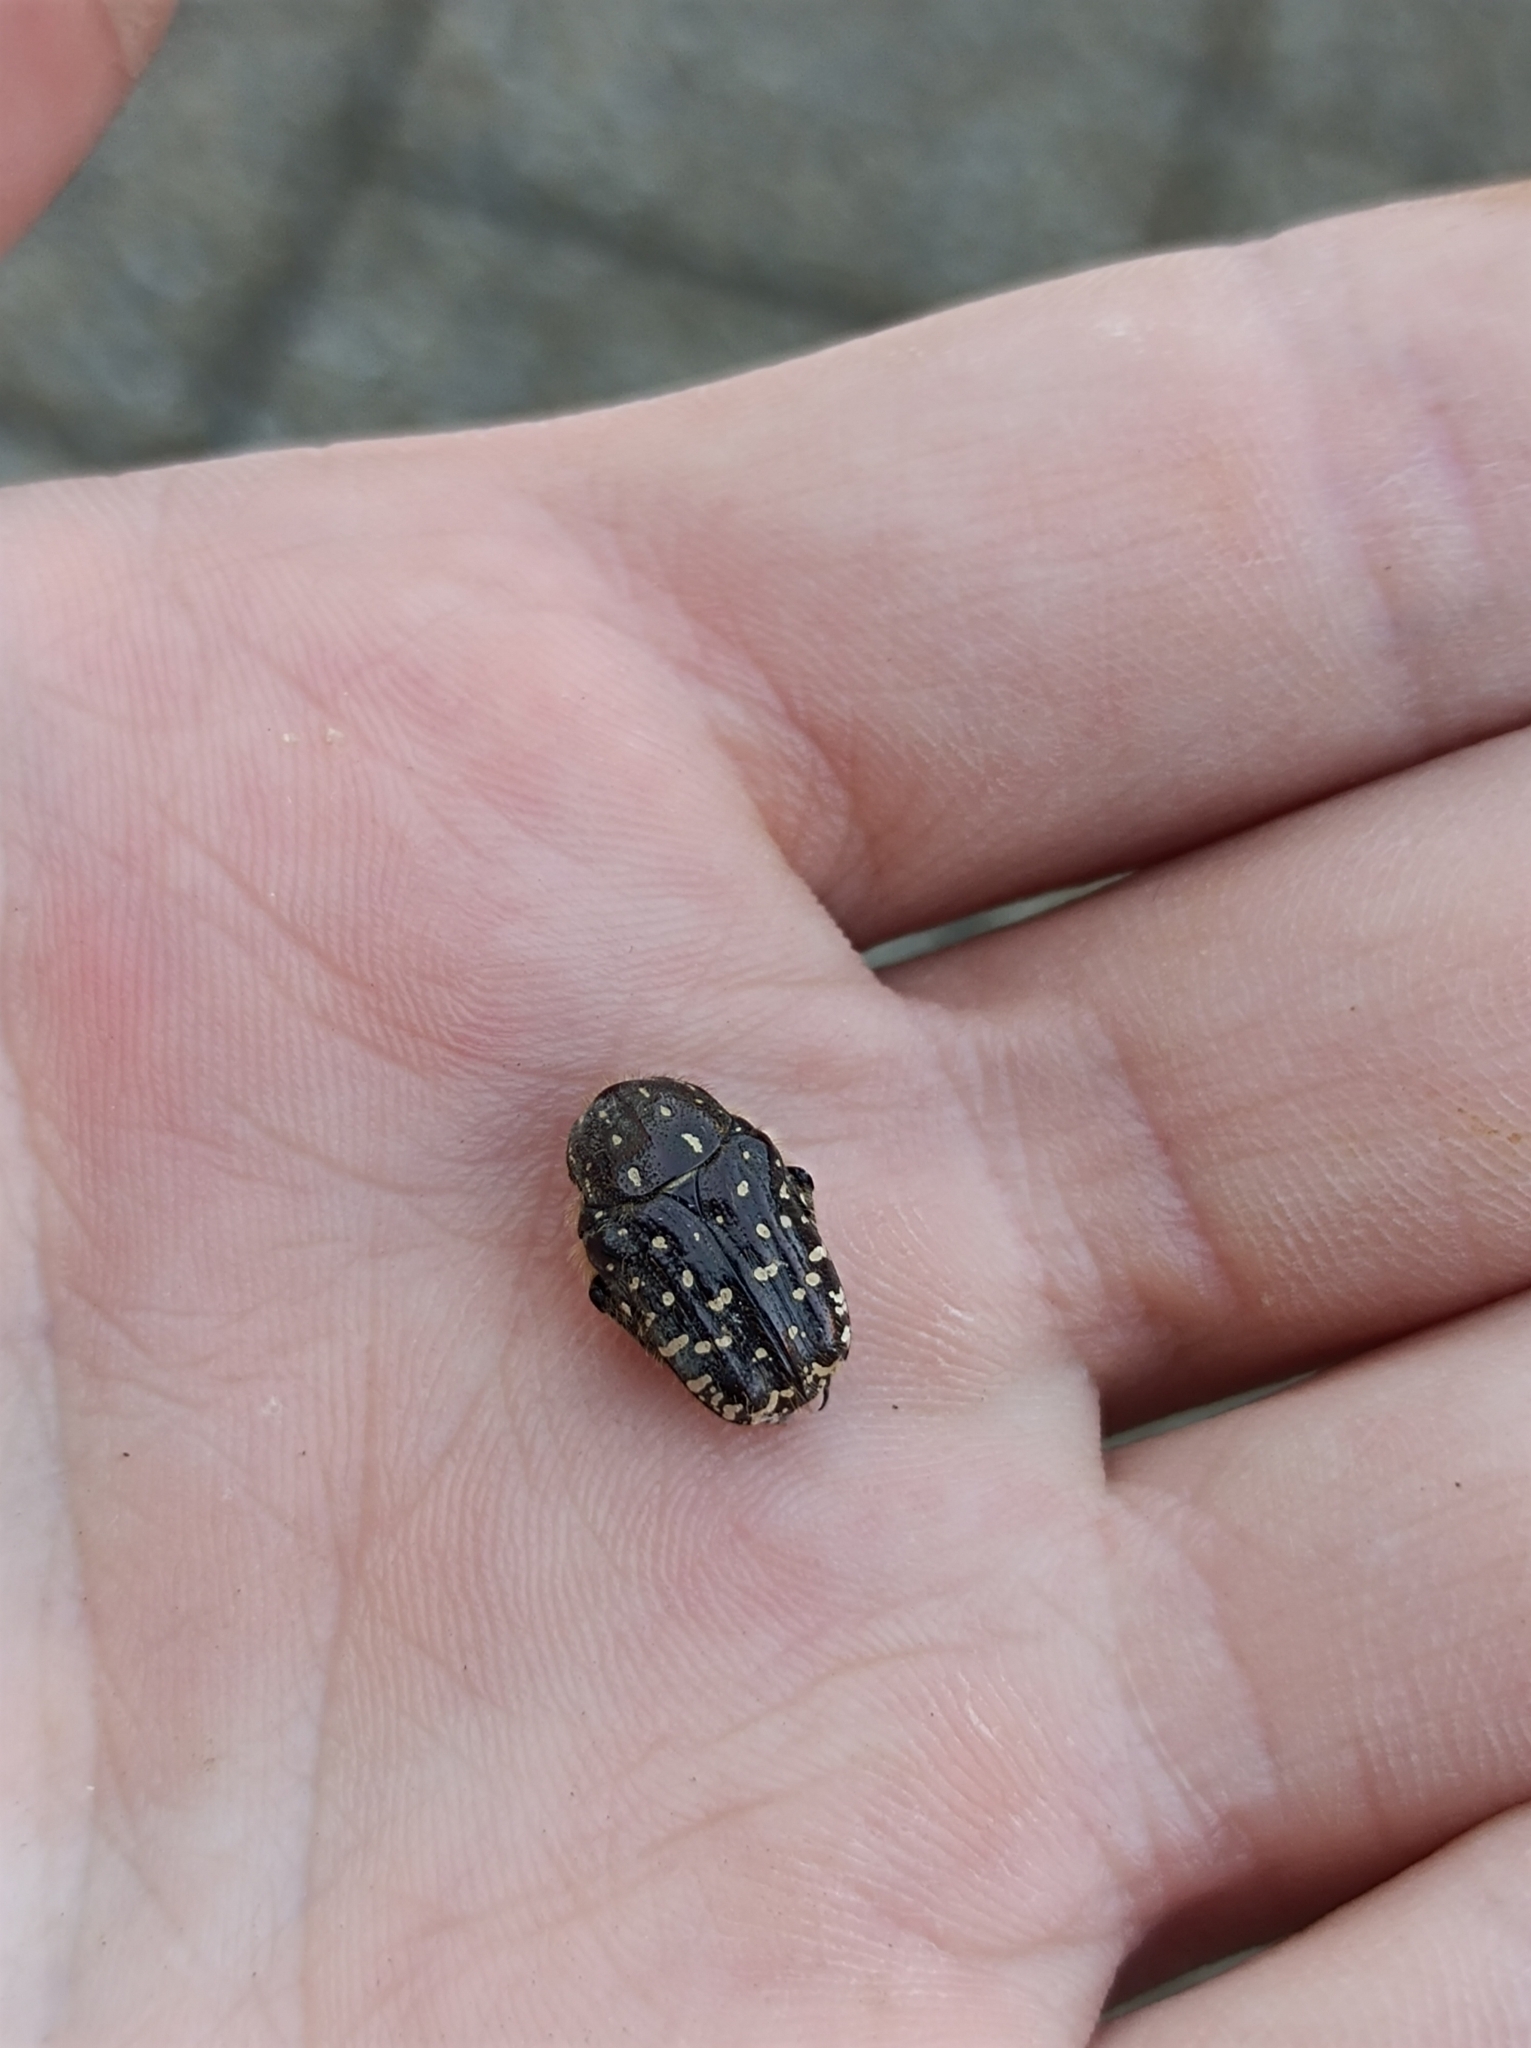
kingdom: Animalia
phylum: Arthropoda
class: Insecta
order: Coleoptera
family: Scarabaeidae
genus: Oxythyrea
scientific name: Oxythyrea funesta
